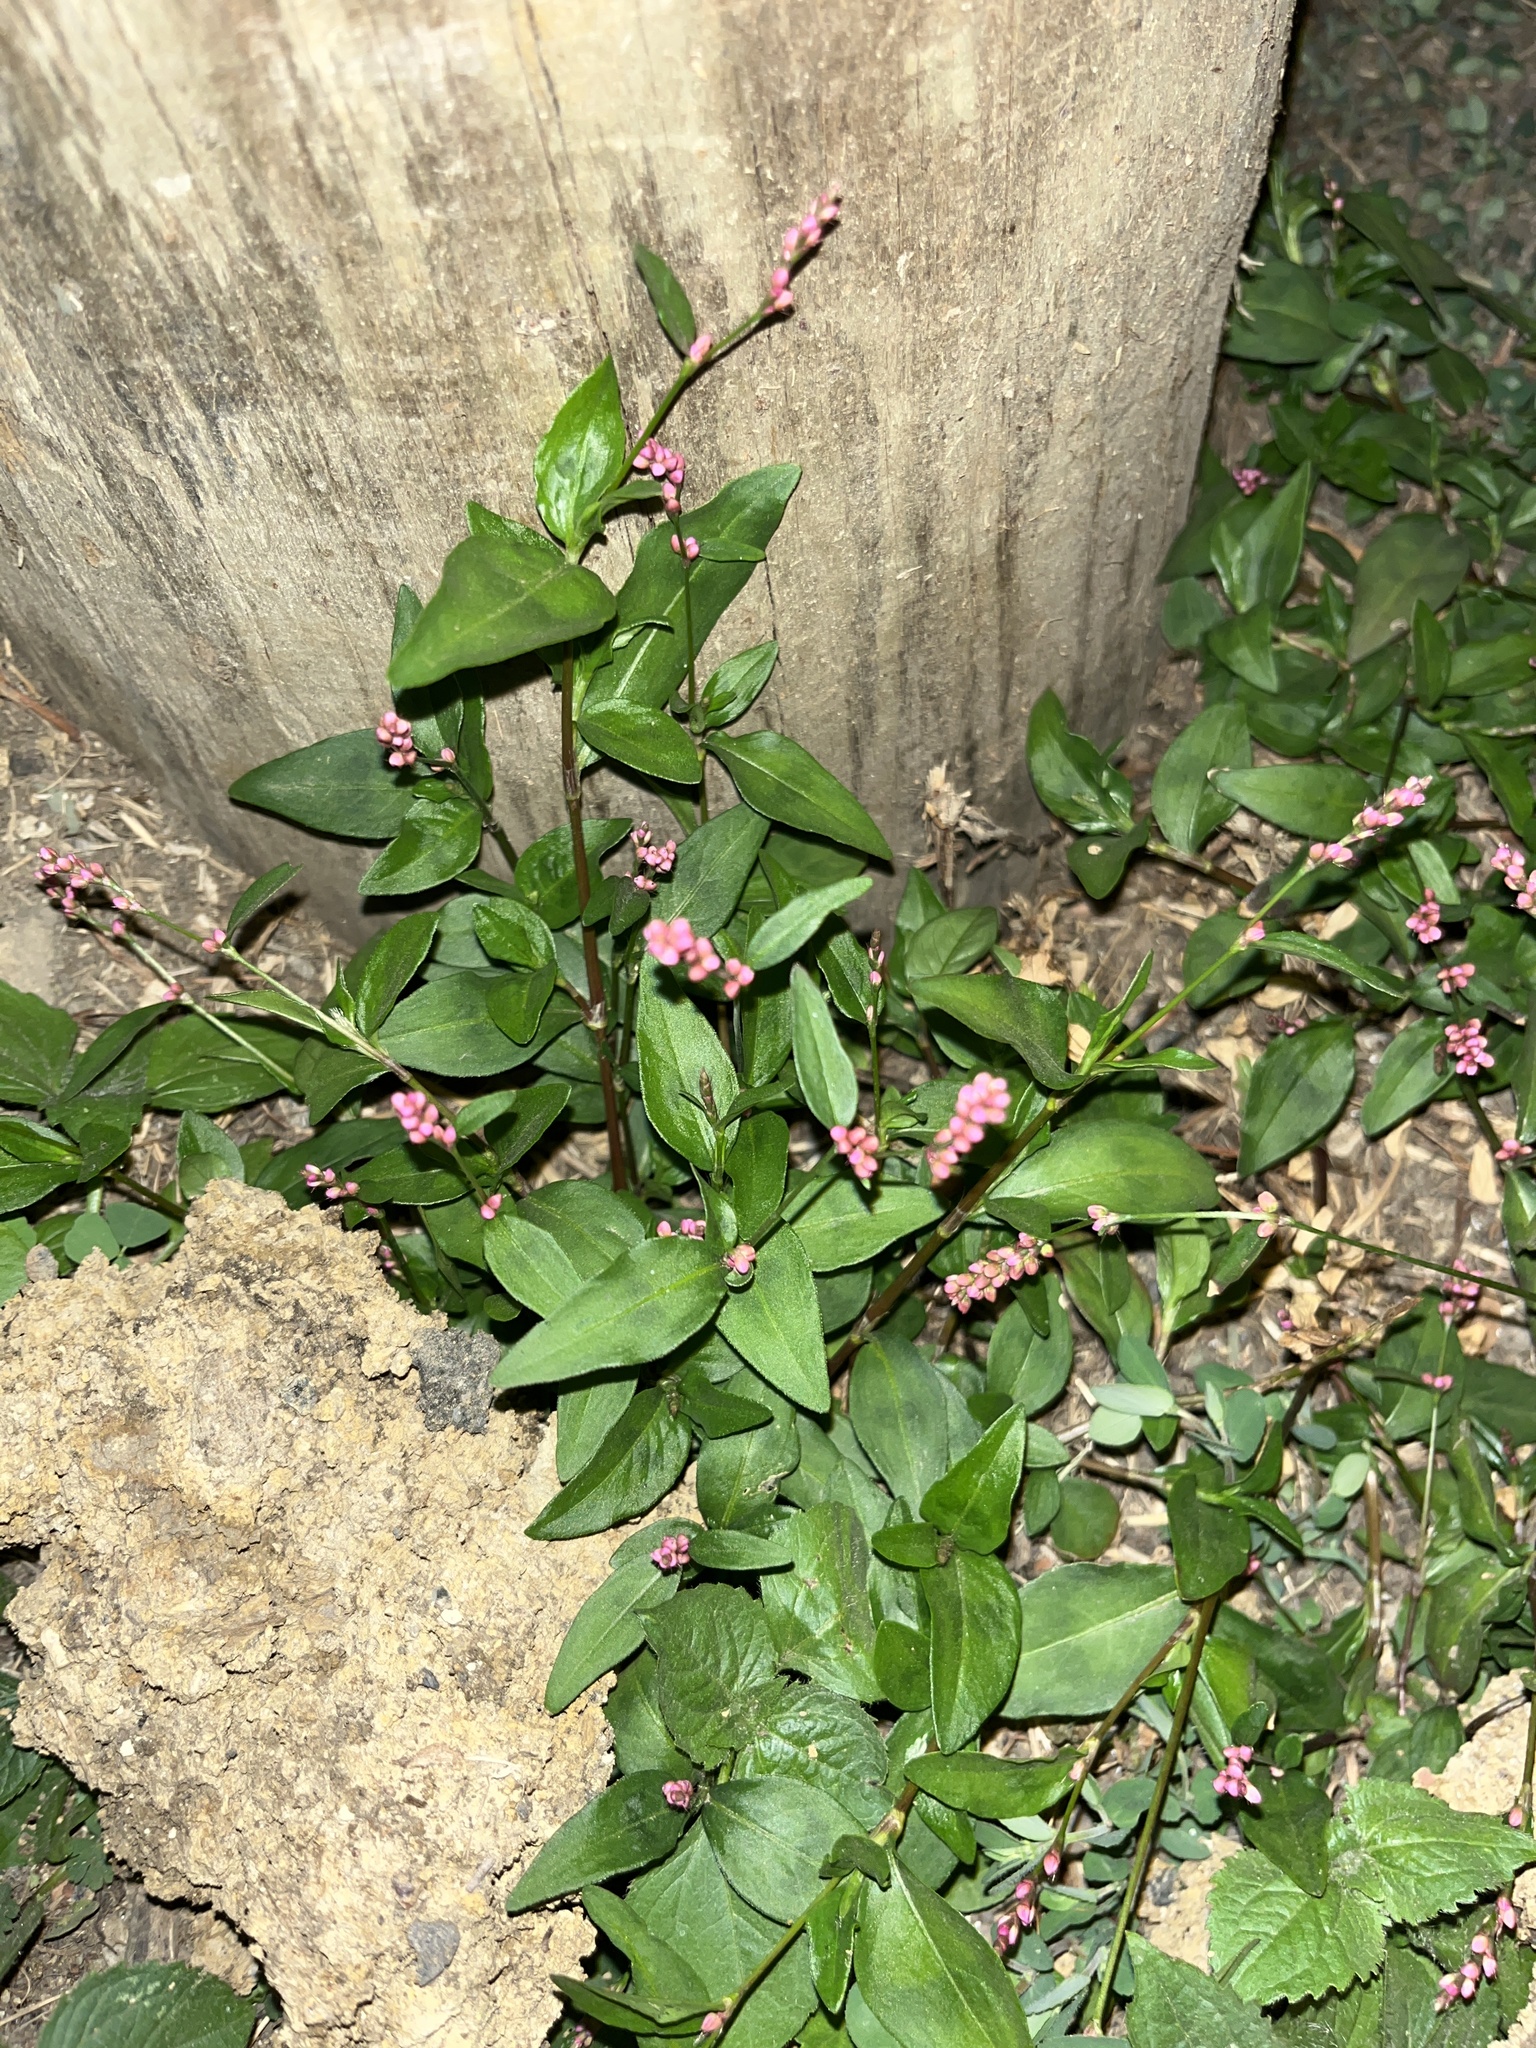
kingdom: Plantae
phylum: Tracheophyta
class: Magnoliopsida
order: Caryophyllales
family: Polygonaceae
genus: Persicaria
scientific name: Persicaria longiseta
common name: Bristly lady's-thumb
